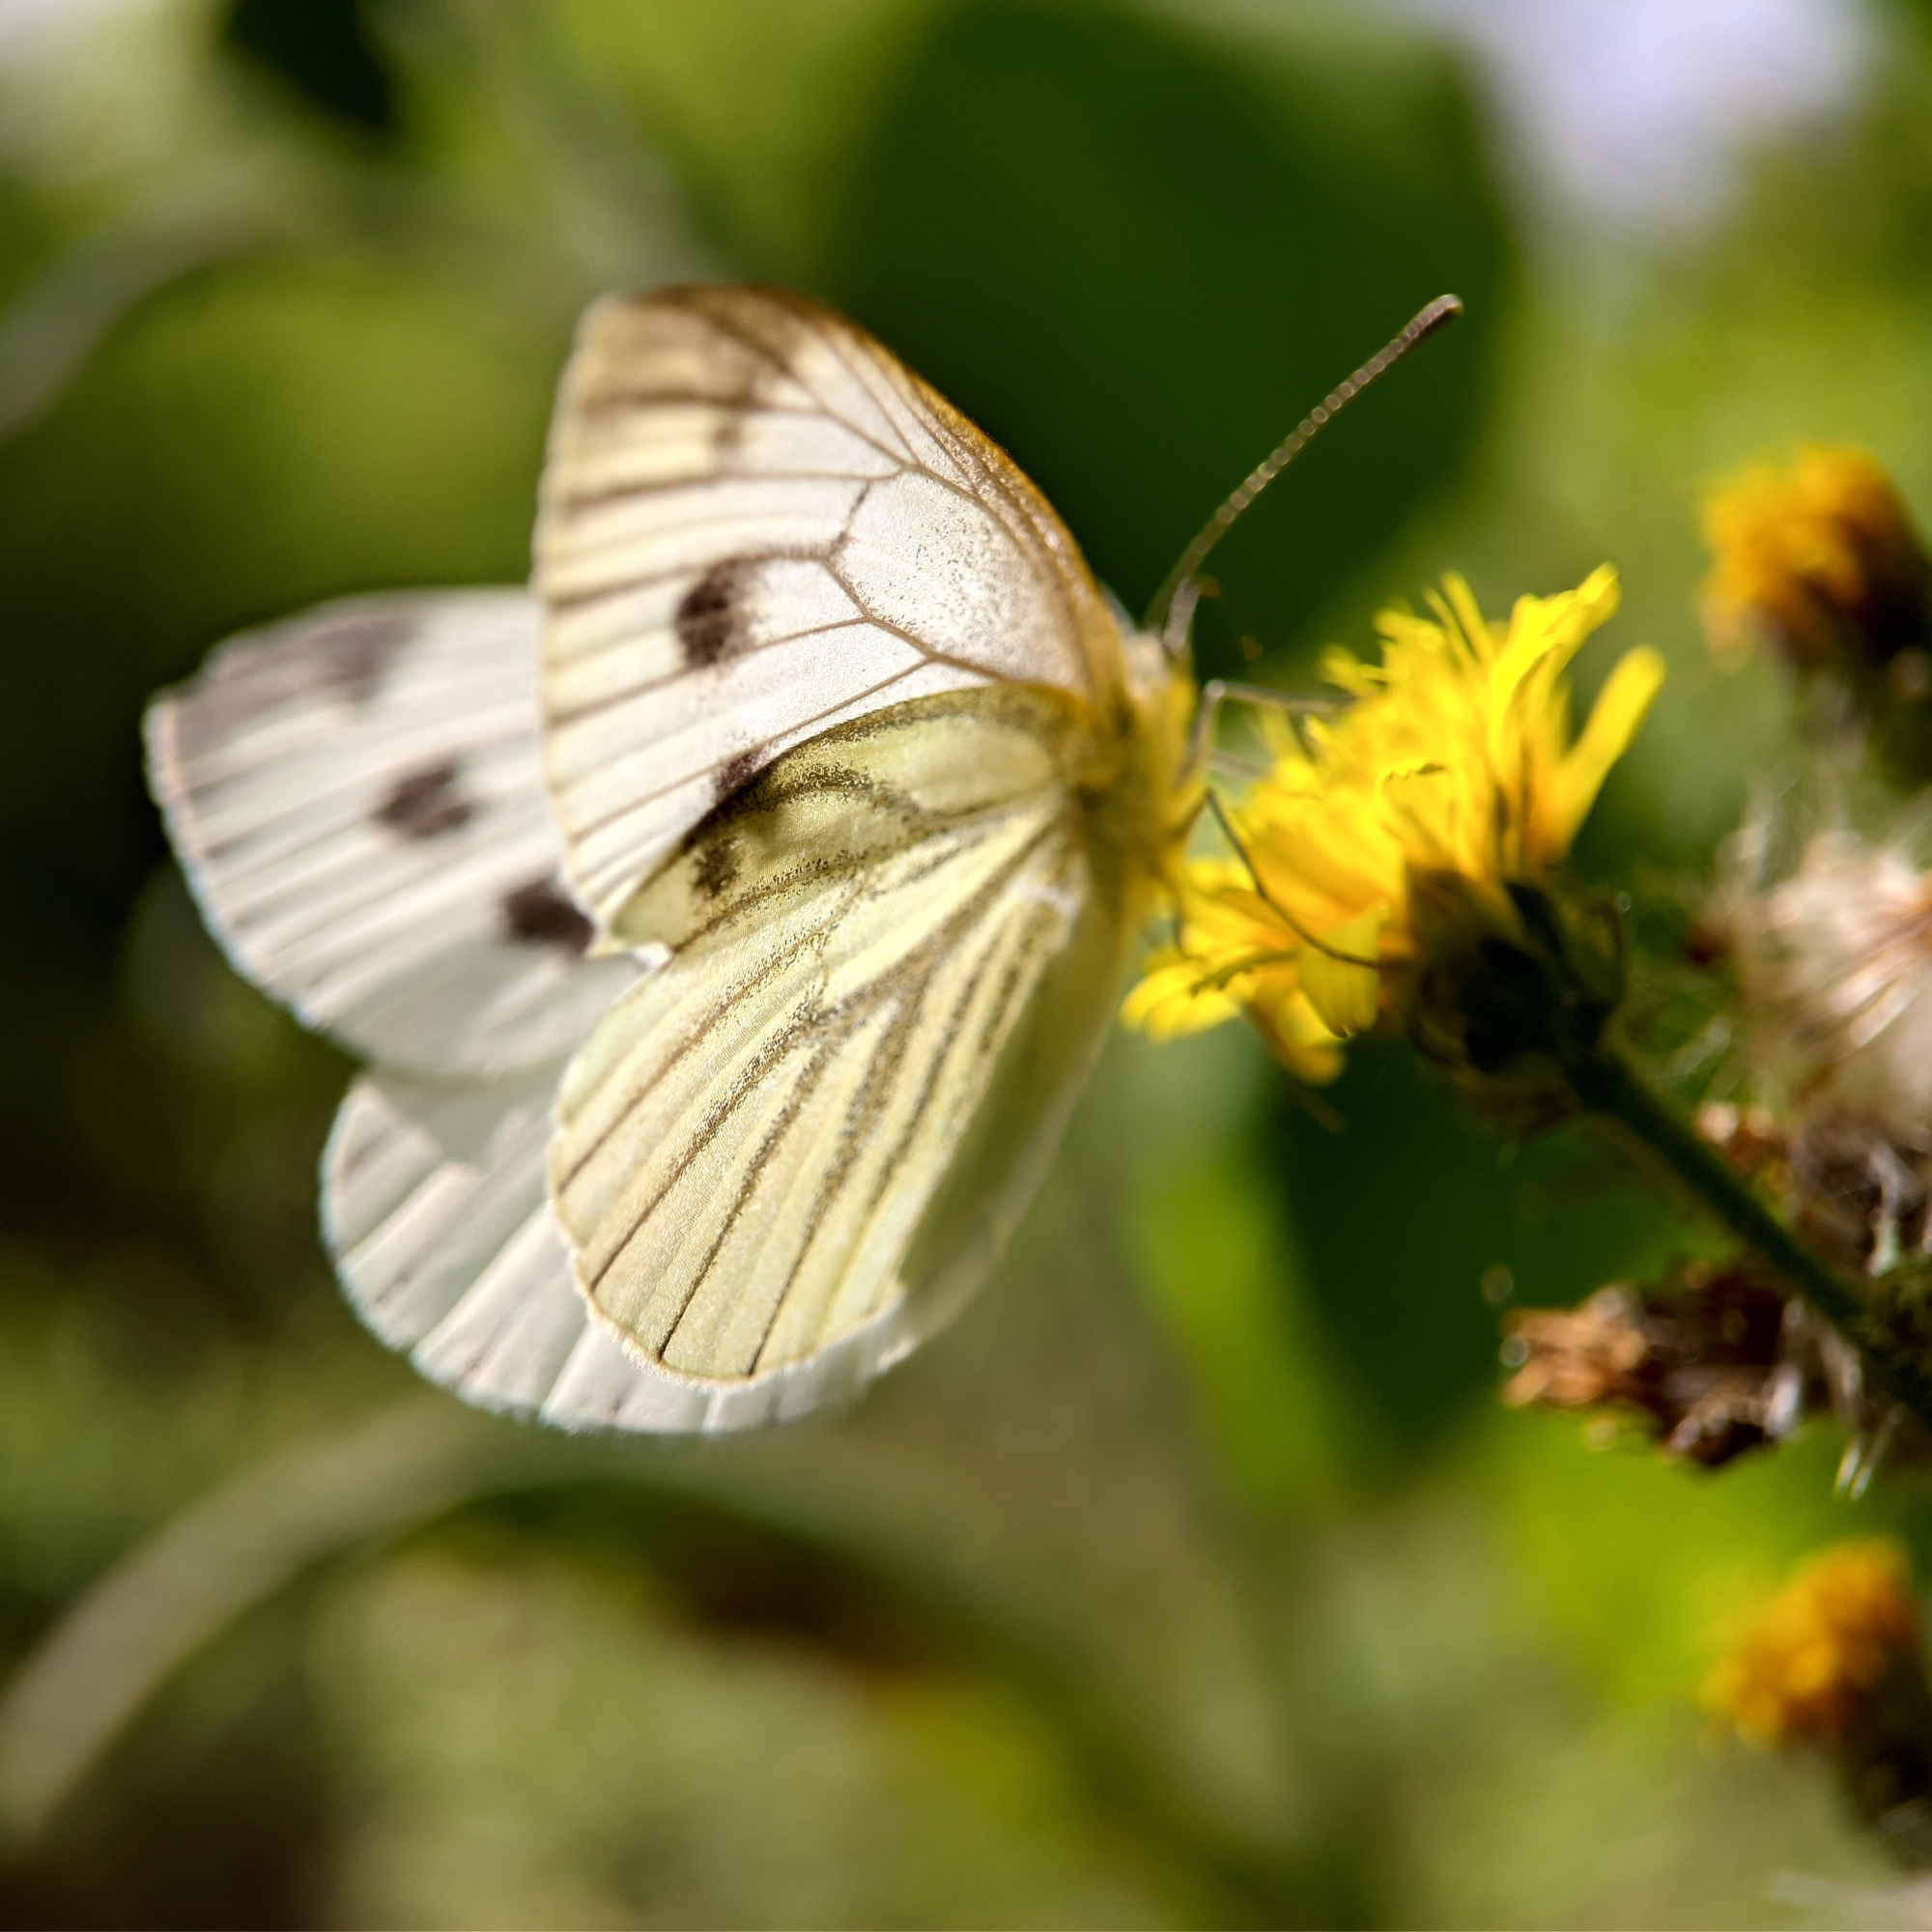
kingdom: Animalia
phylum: Arthropoda
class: Insecta
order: Lepidoptera
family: Pieridae
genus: Pieris
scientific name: Pieris napi
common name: Green-veined white
